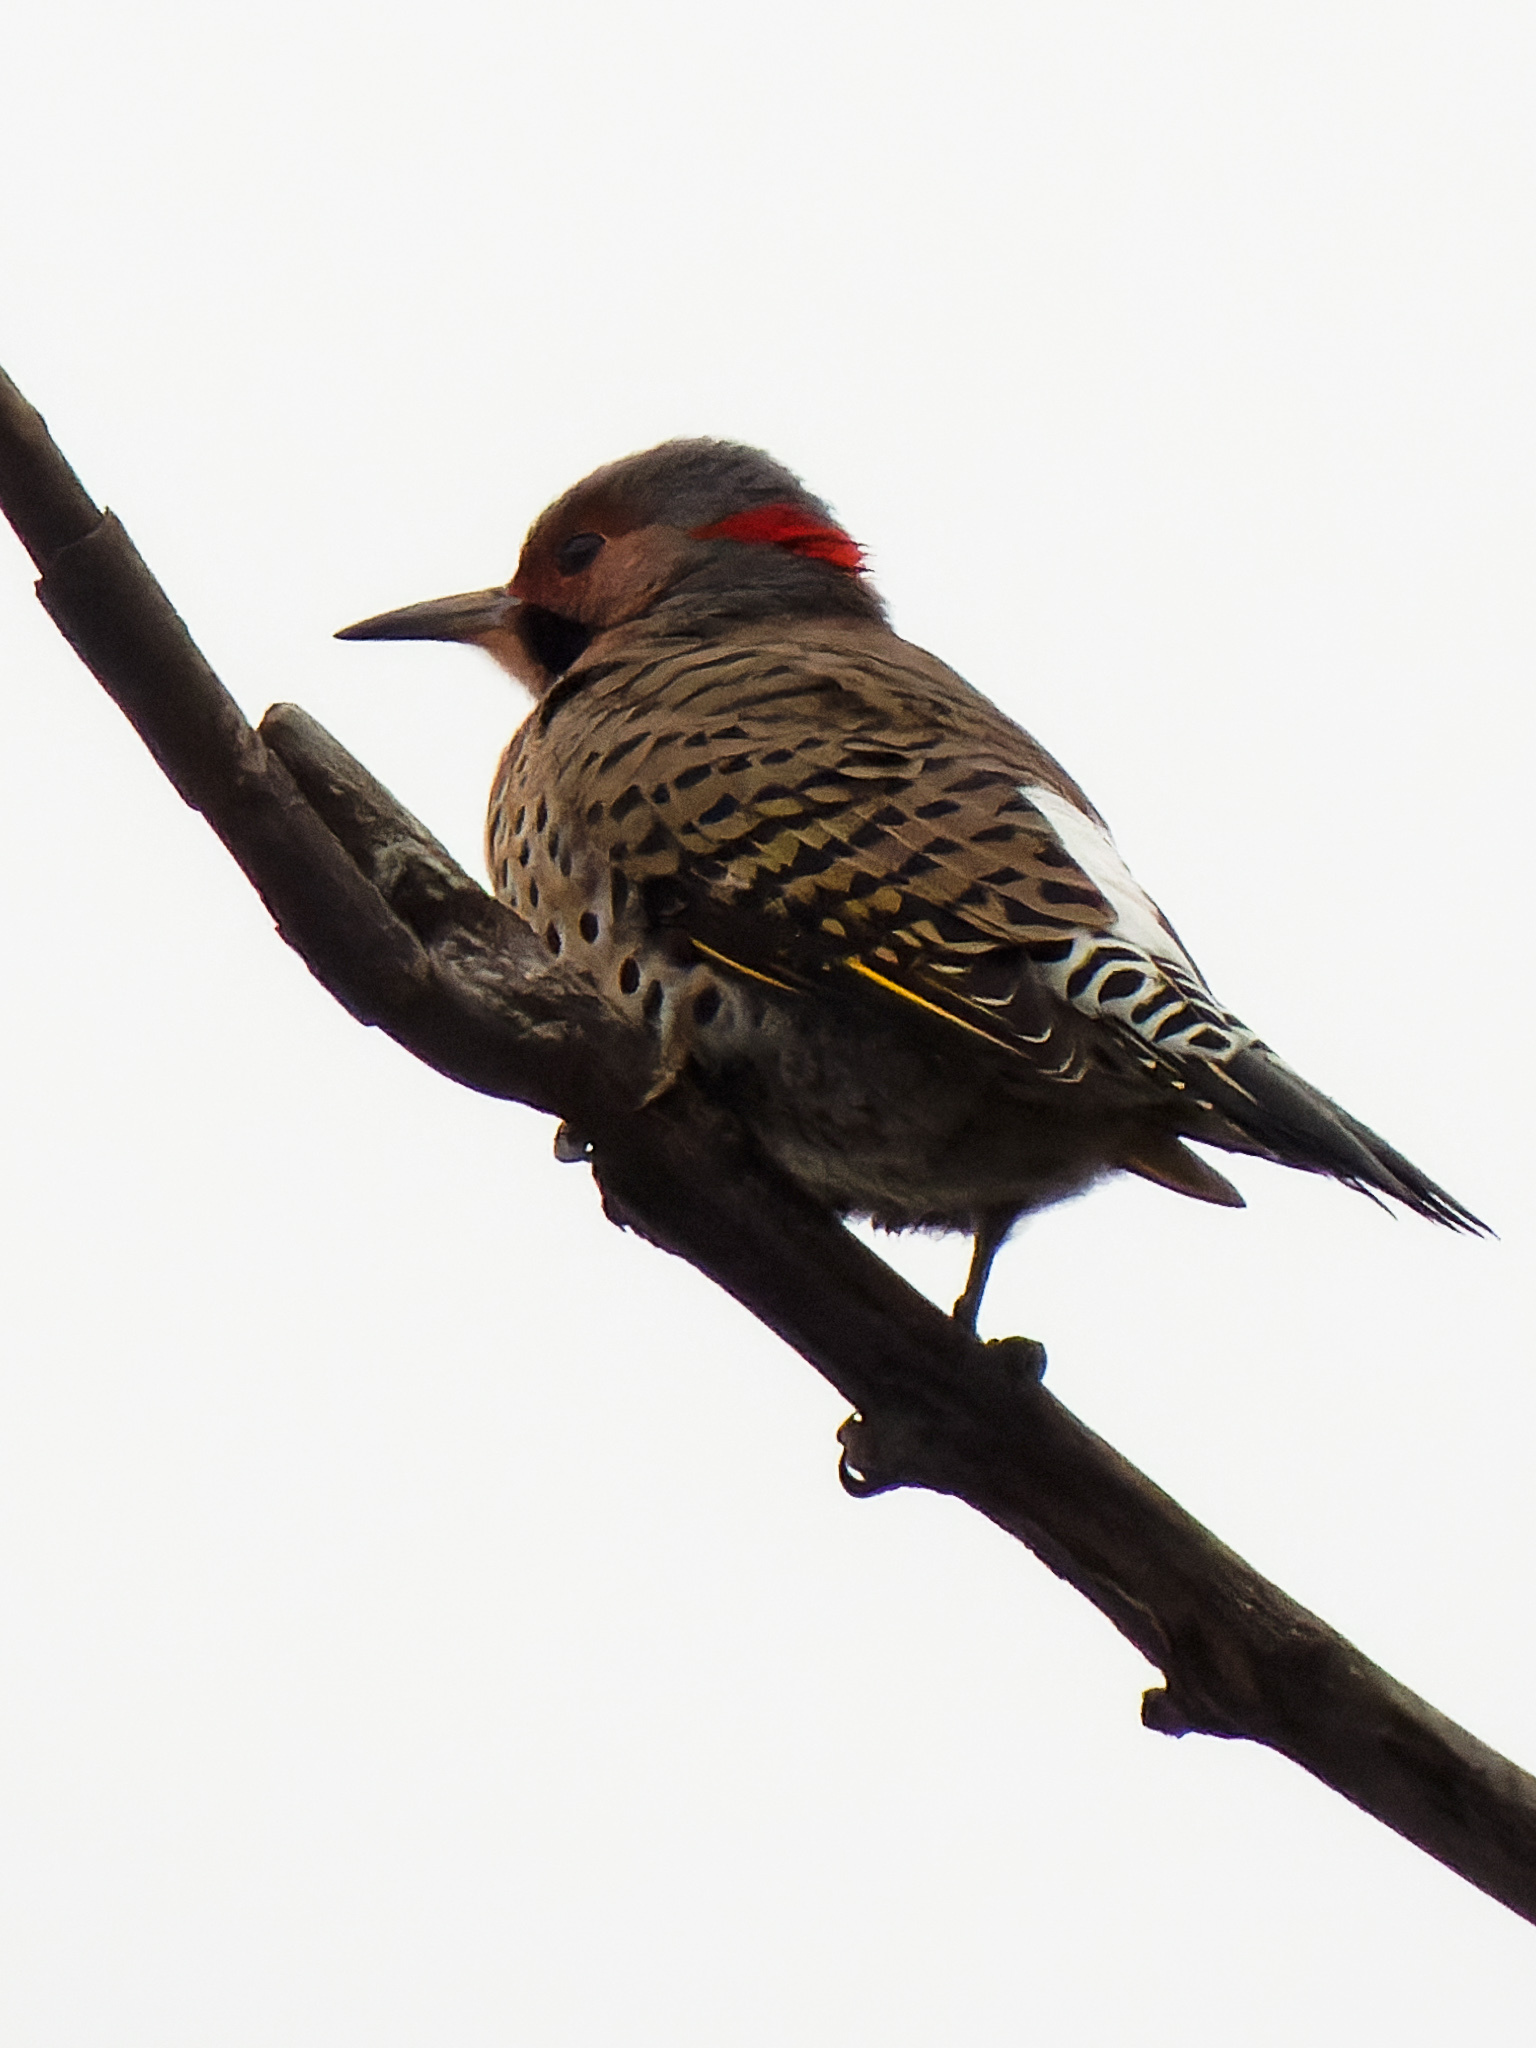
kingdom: Animalia
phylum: Chordata
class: Aves
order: Piciformes
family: Picidae
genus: Colaptes
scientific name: Colaptes auratus
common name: Northern flicker
